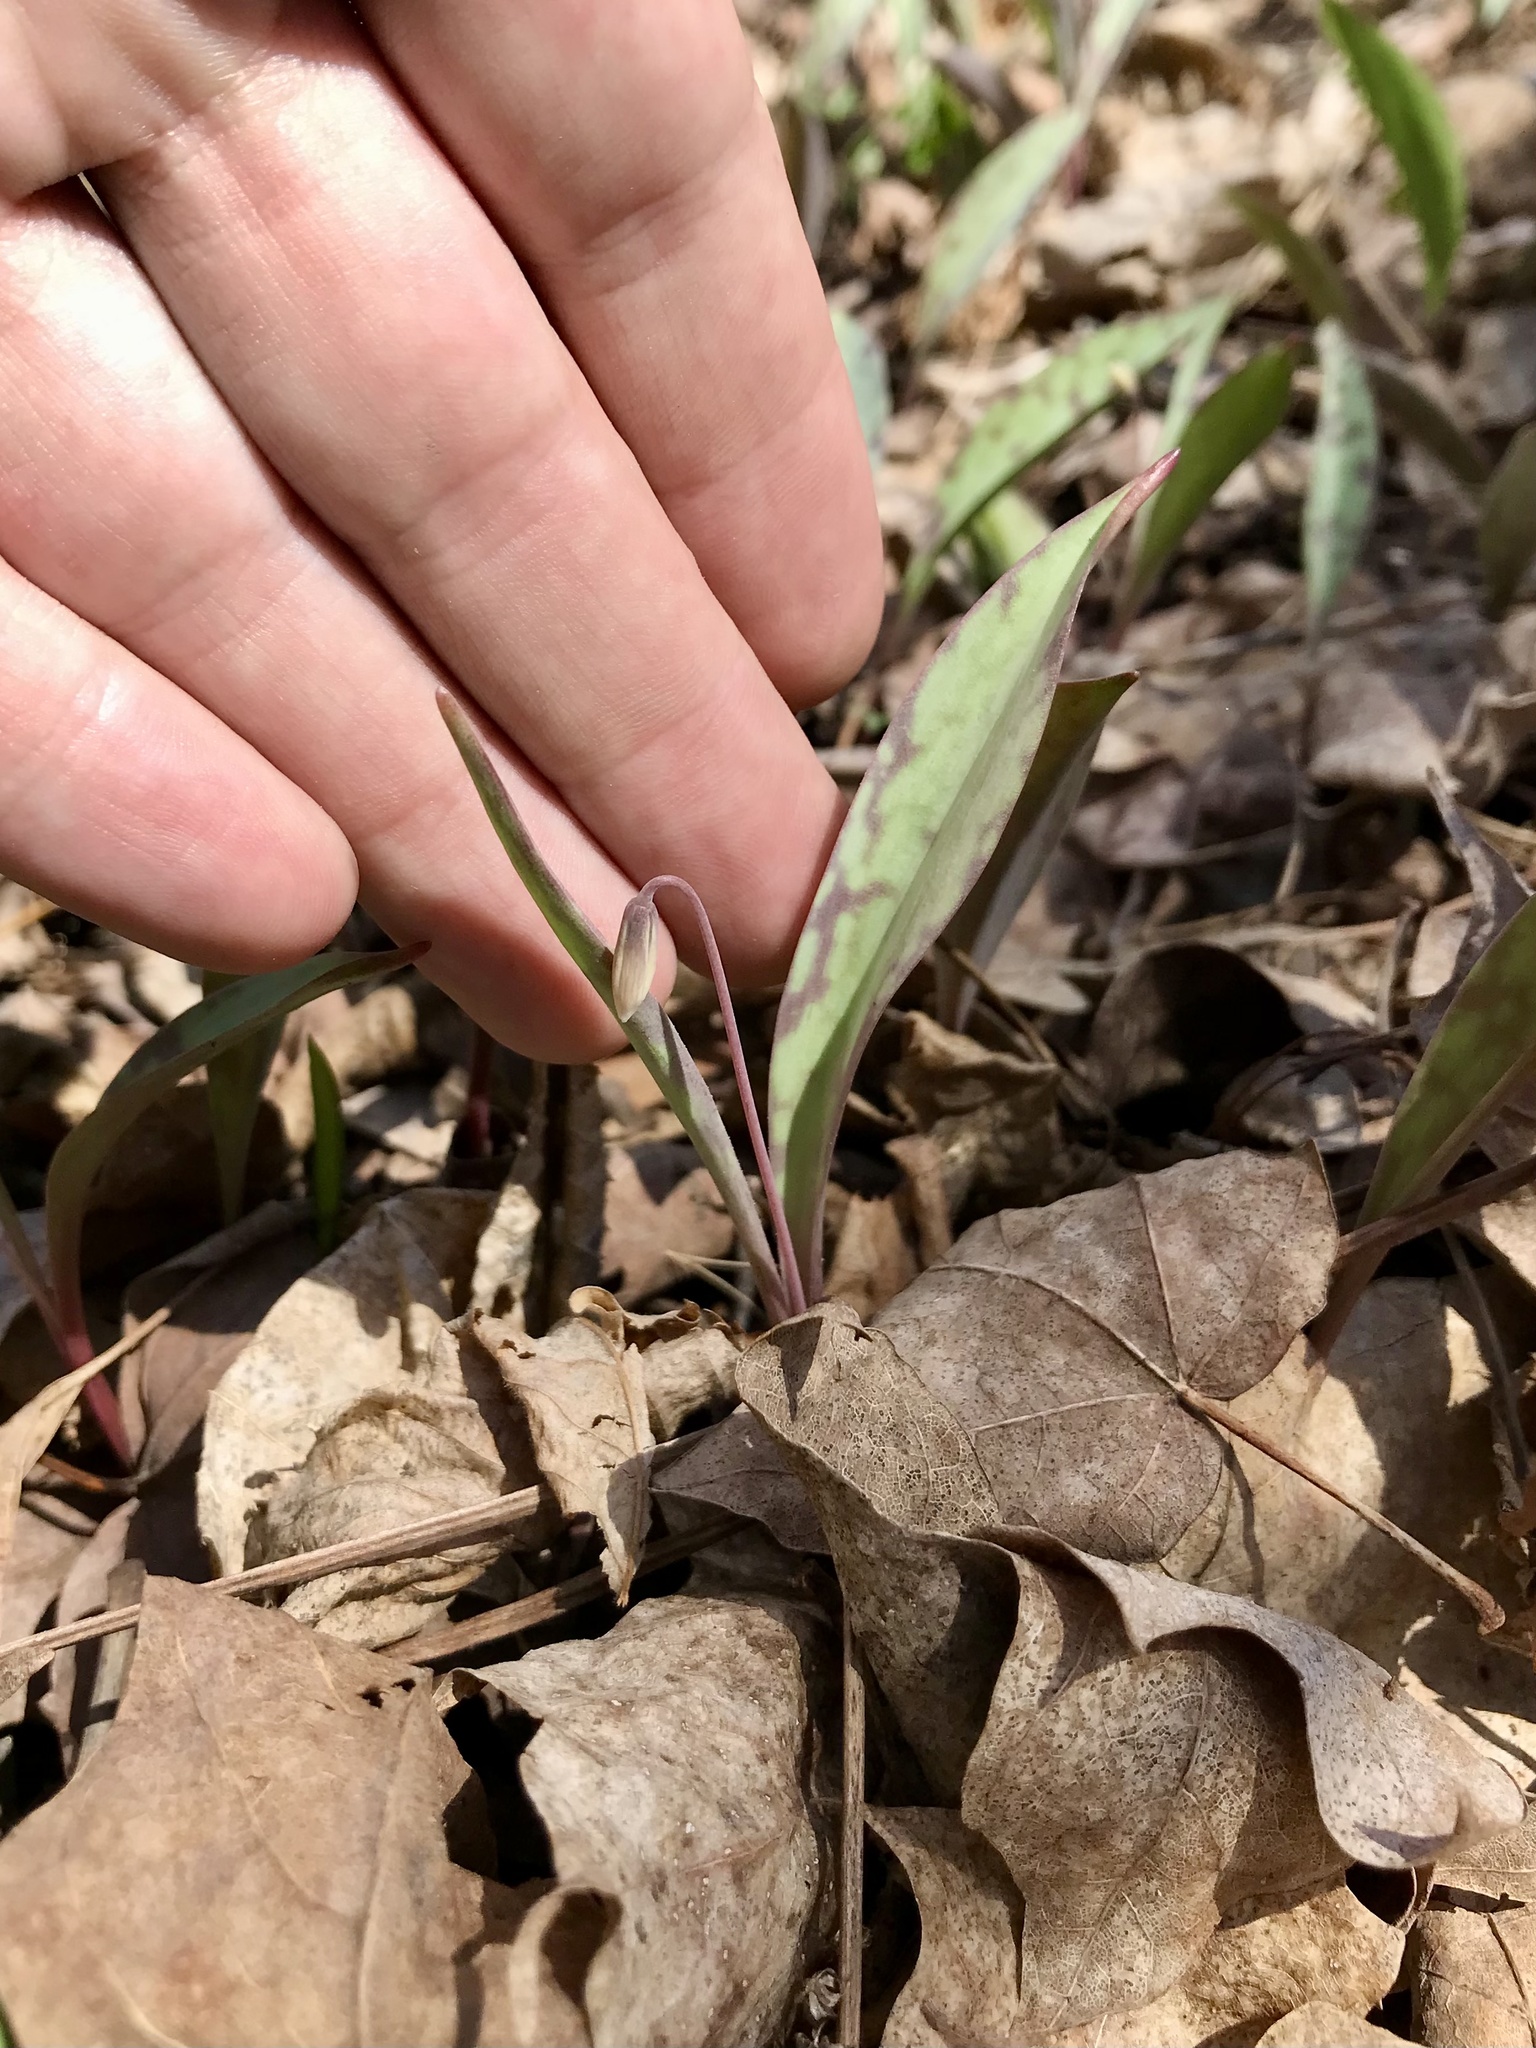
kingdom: Plantae
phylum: Tracheophyta
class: Liliopsida
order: Liliales
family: Liliaceae
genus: Erythronium
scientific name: Erythronium propullans
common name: Minnesota dwarf trout-lily
